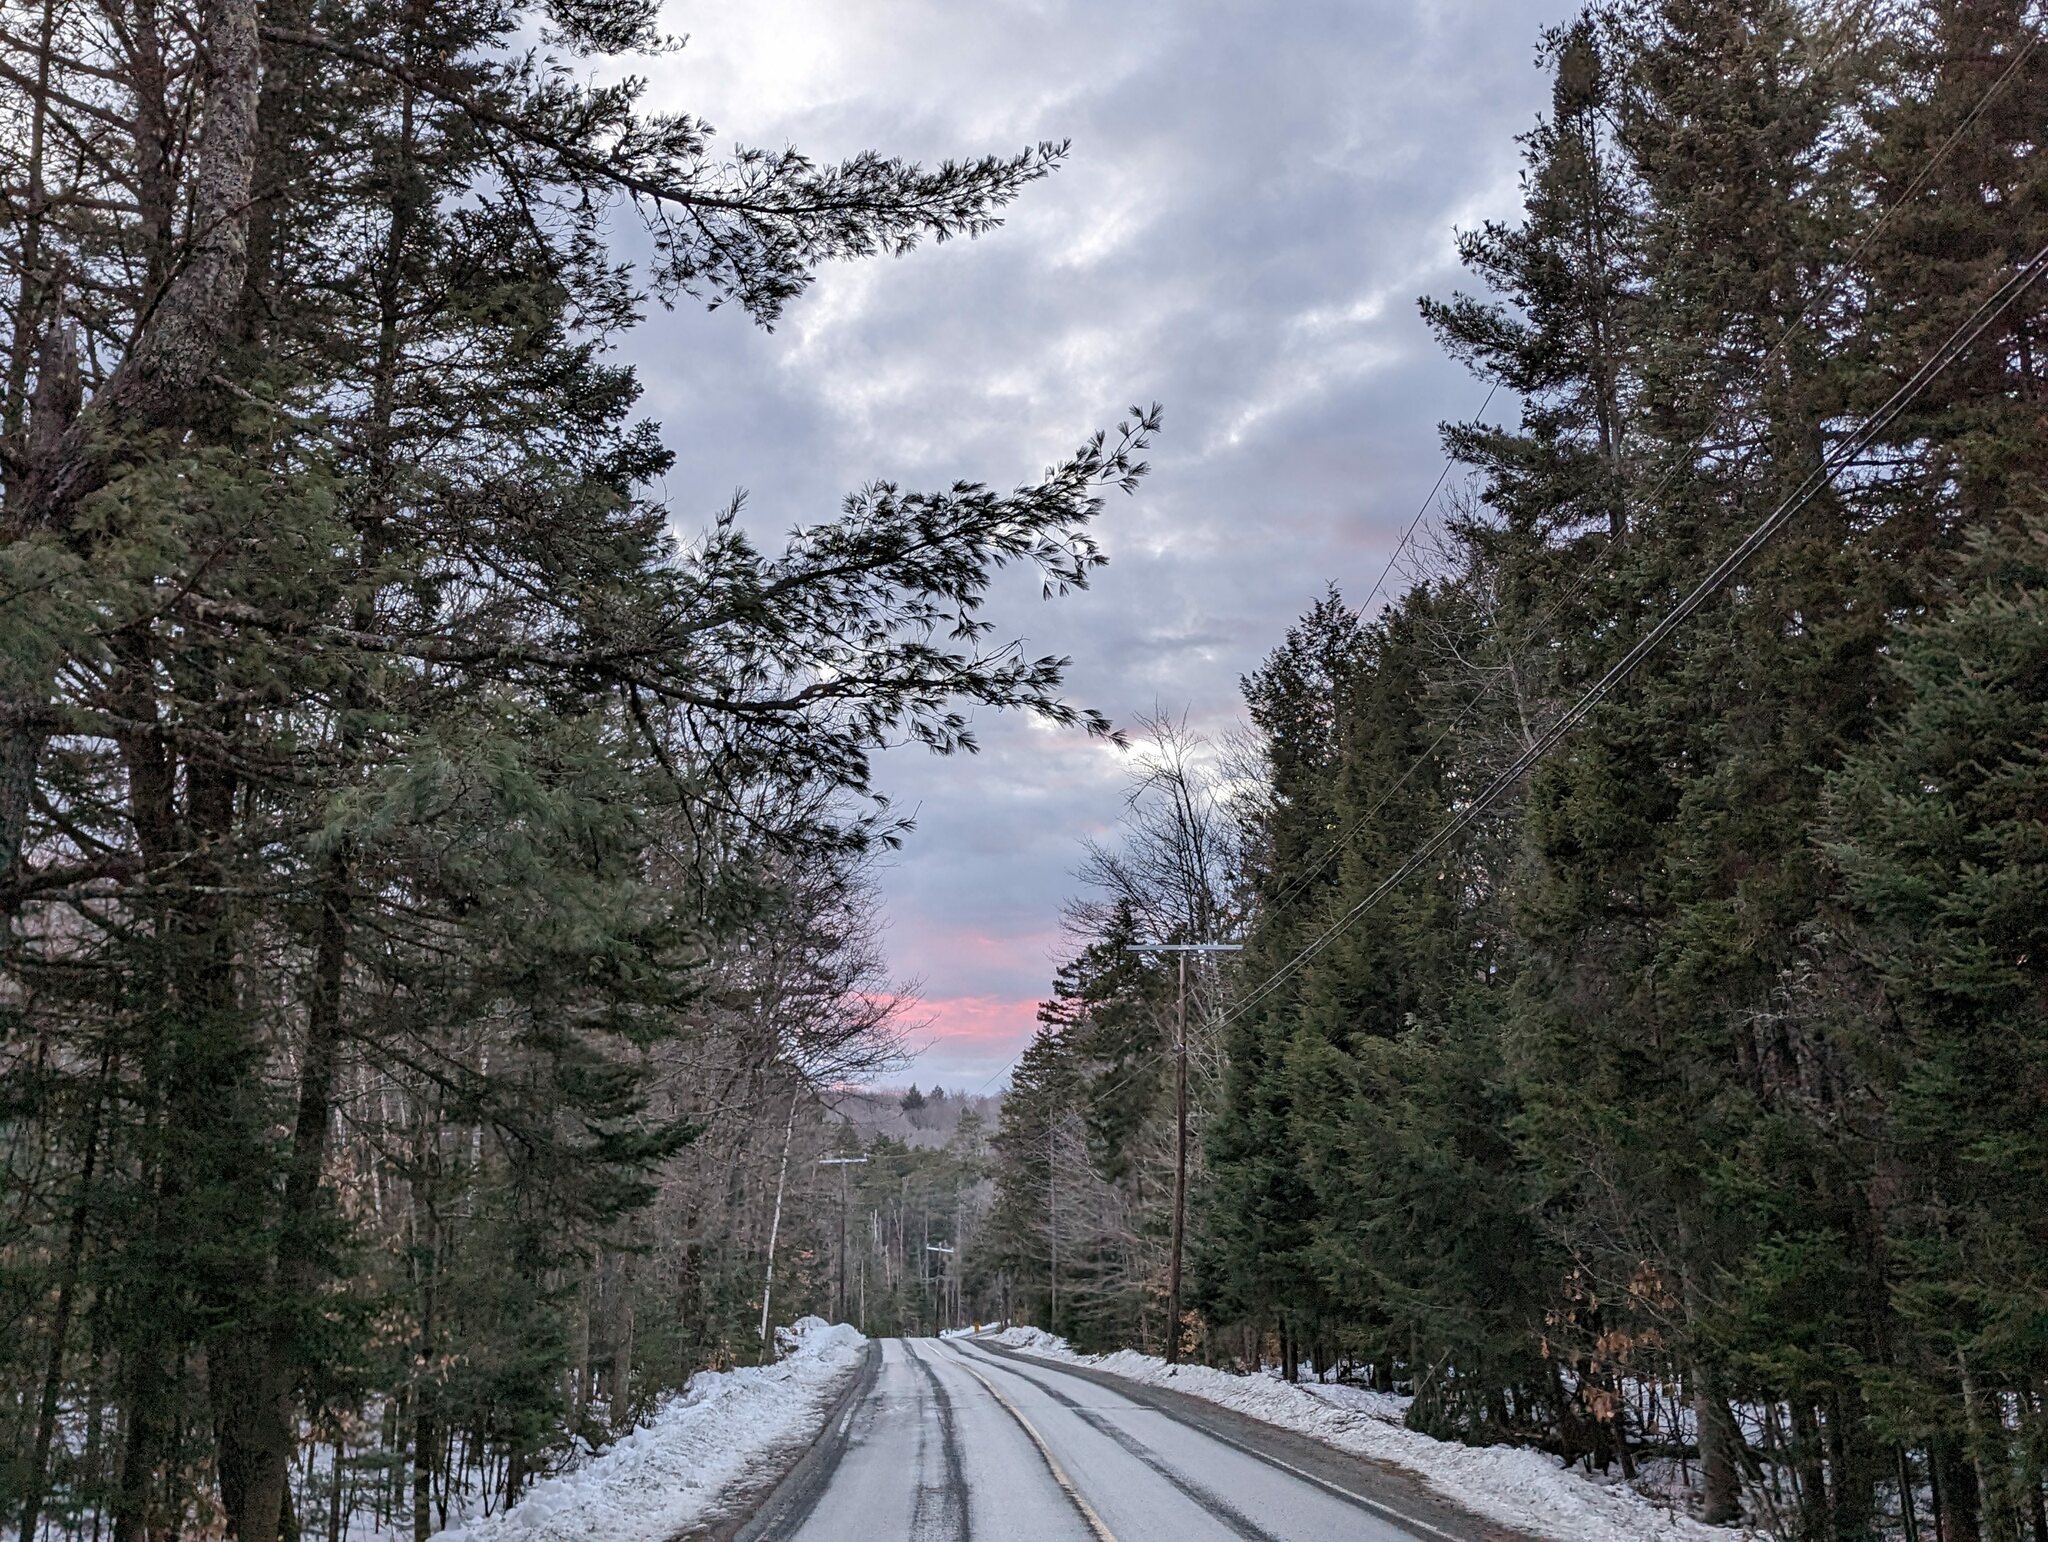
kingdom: Plantae
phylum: Tracheophyta
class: Pinopsida
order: Pinales
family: Pinaceae
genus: Pinus
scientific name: Pinus strobus
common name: Weymouth pine
